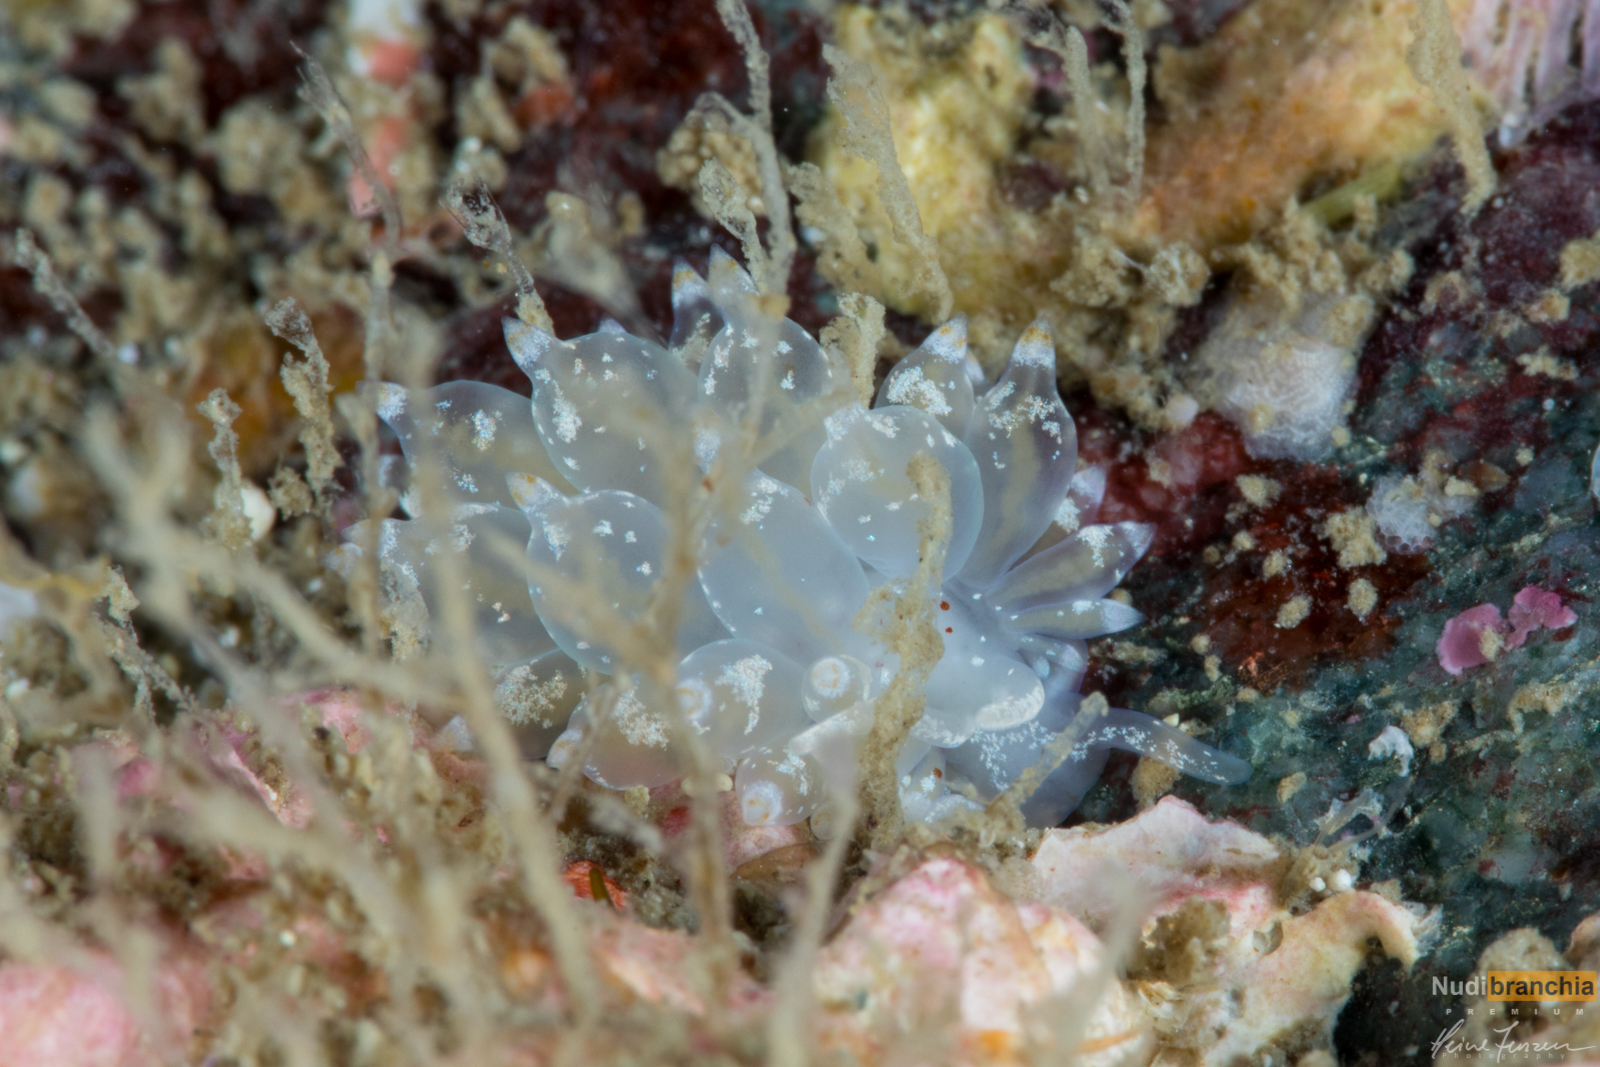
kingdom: Animalia
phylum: Mollusca
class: Gastropoda
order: Nudibranchia
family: Eubranchidae
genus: Amphorina
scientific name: Amphorina pallida
